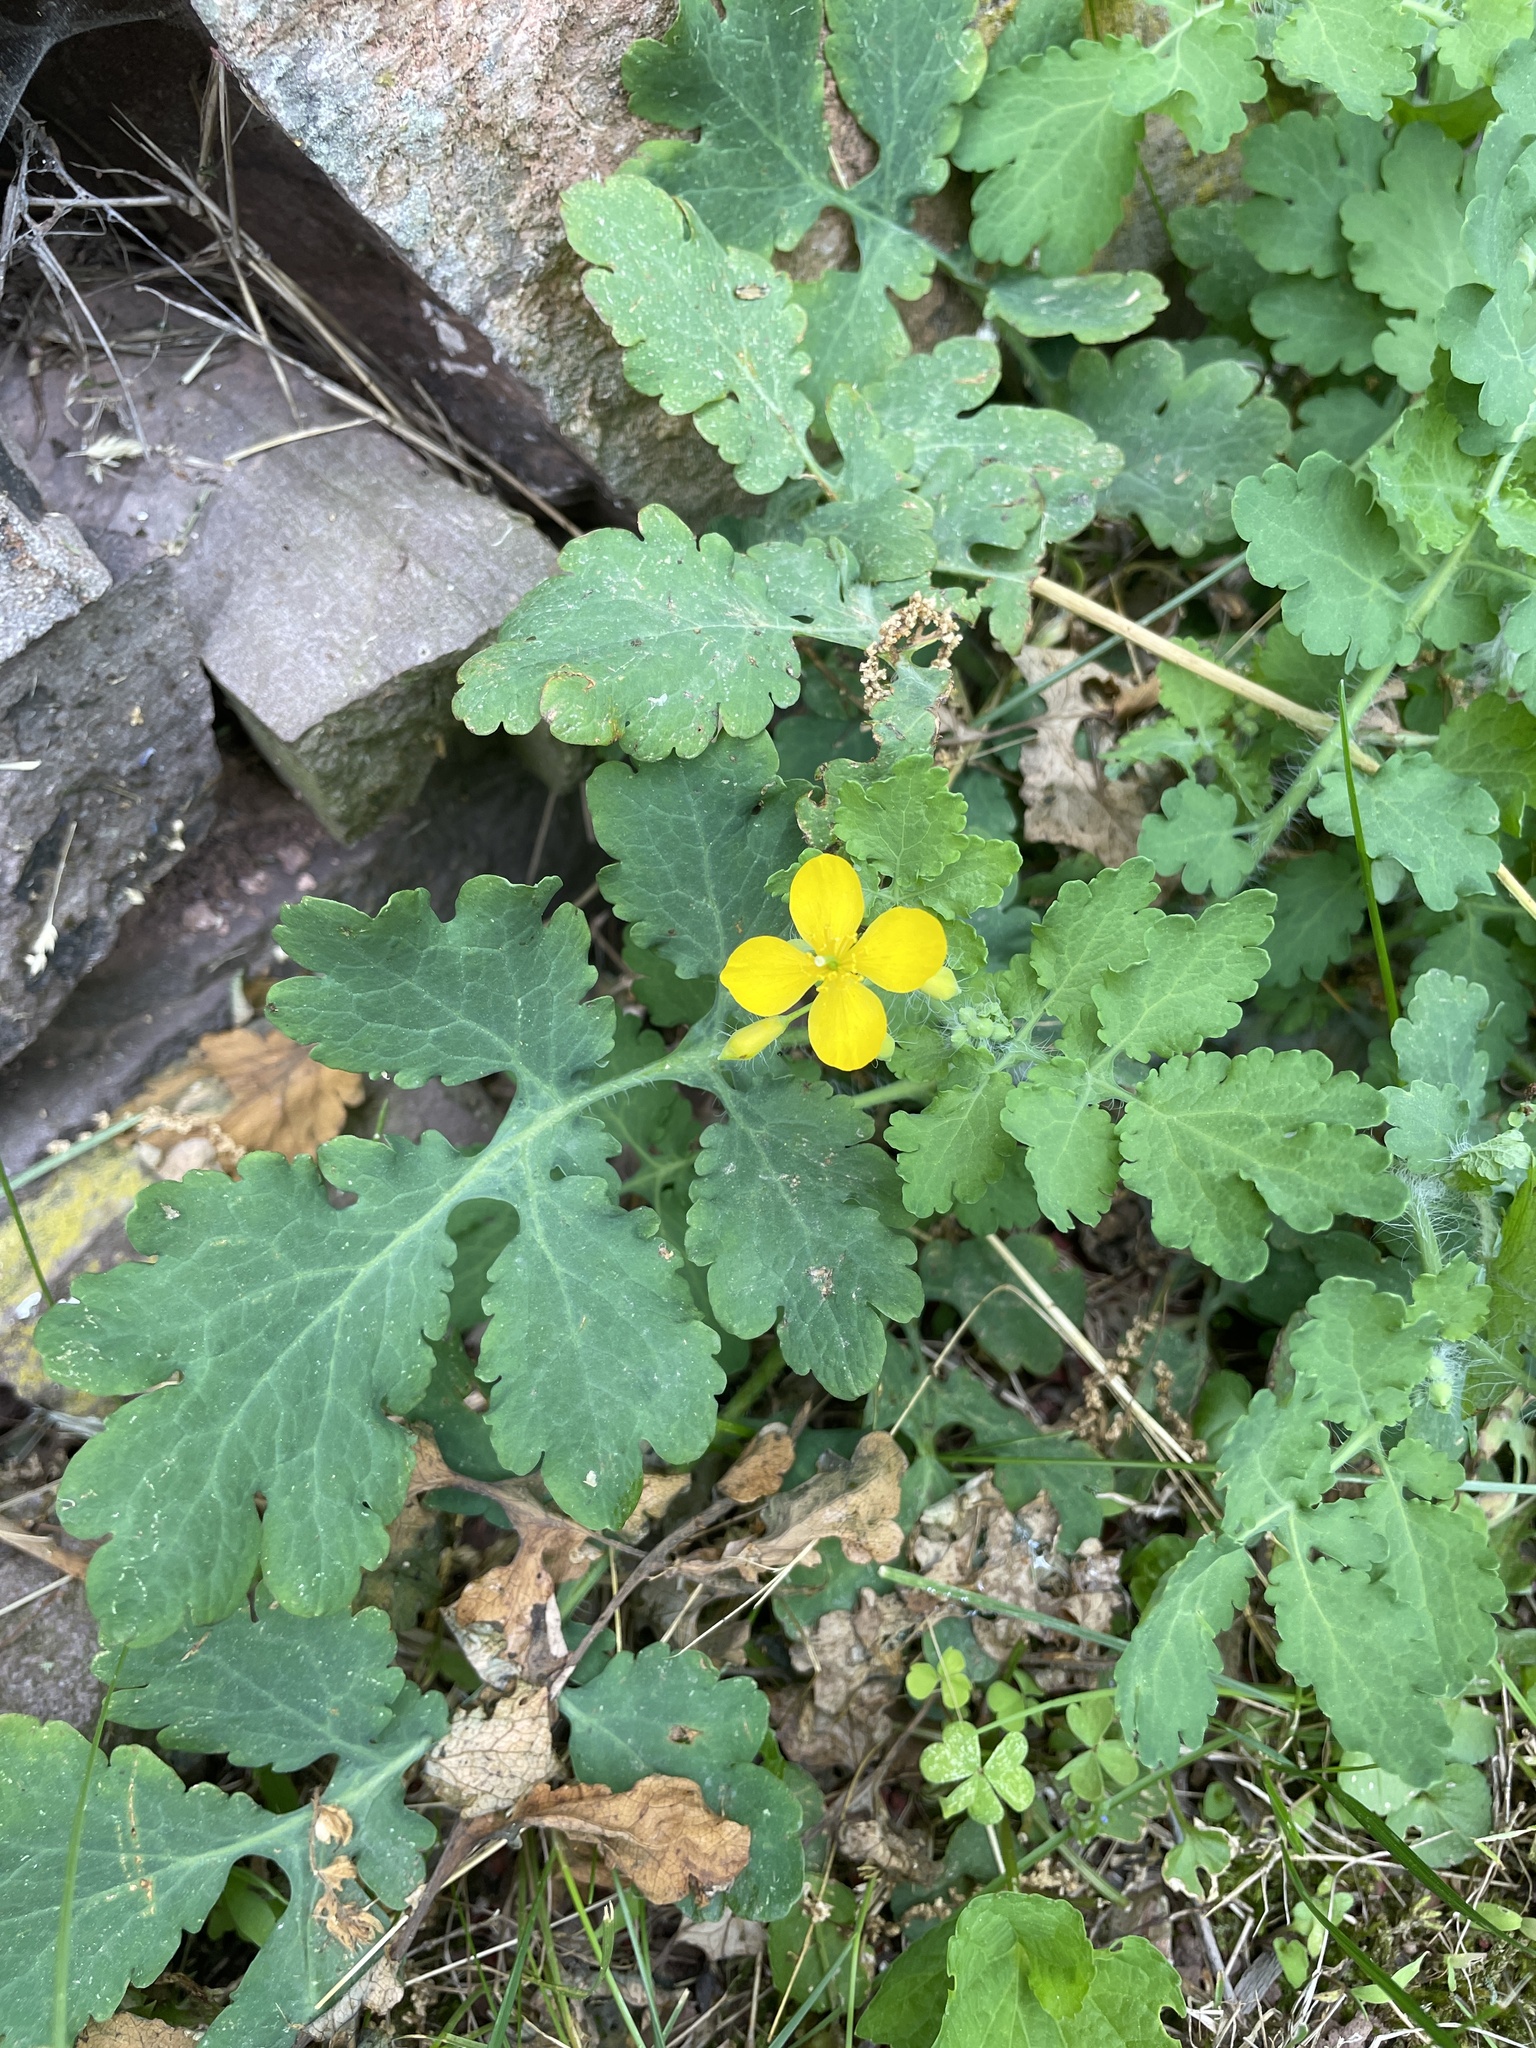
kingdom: Plantae
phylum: Tracheophyta
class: Magnoliopsida
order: Ranunculales
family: Papaveraceae
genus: Chelidonium
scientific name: Chelidonium majus
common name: Greater celandine
